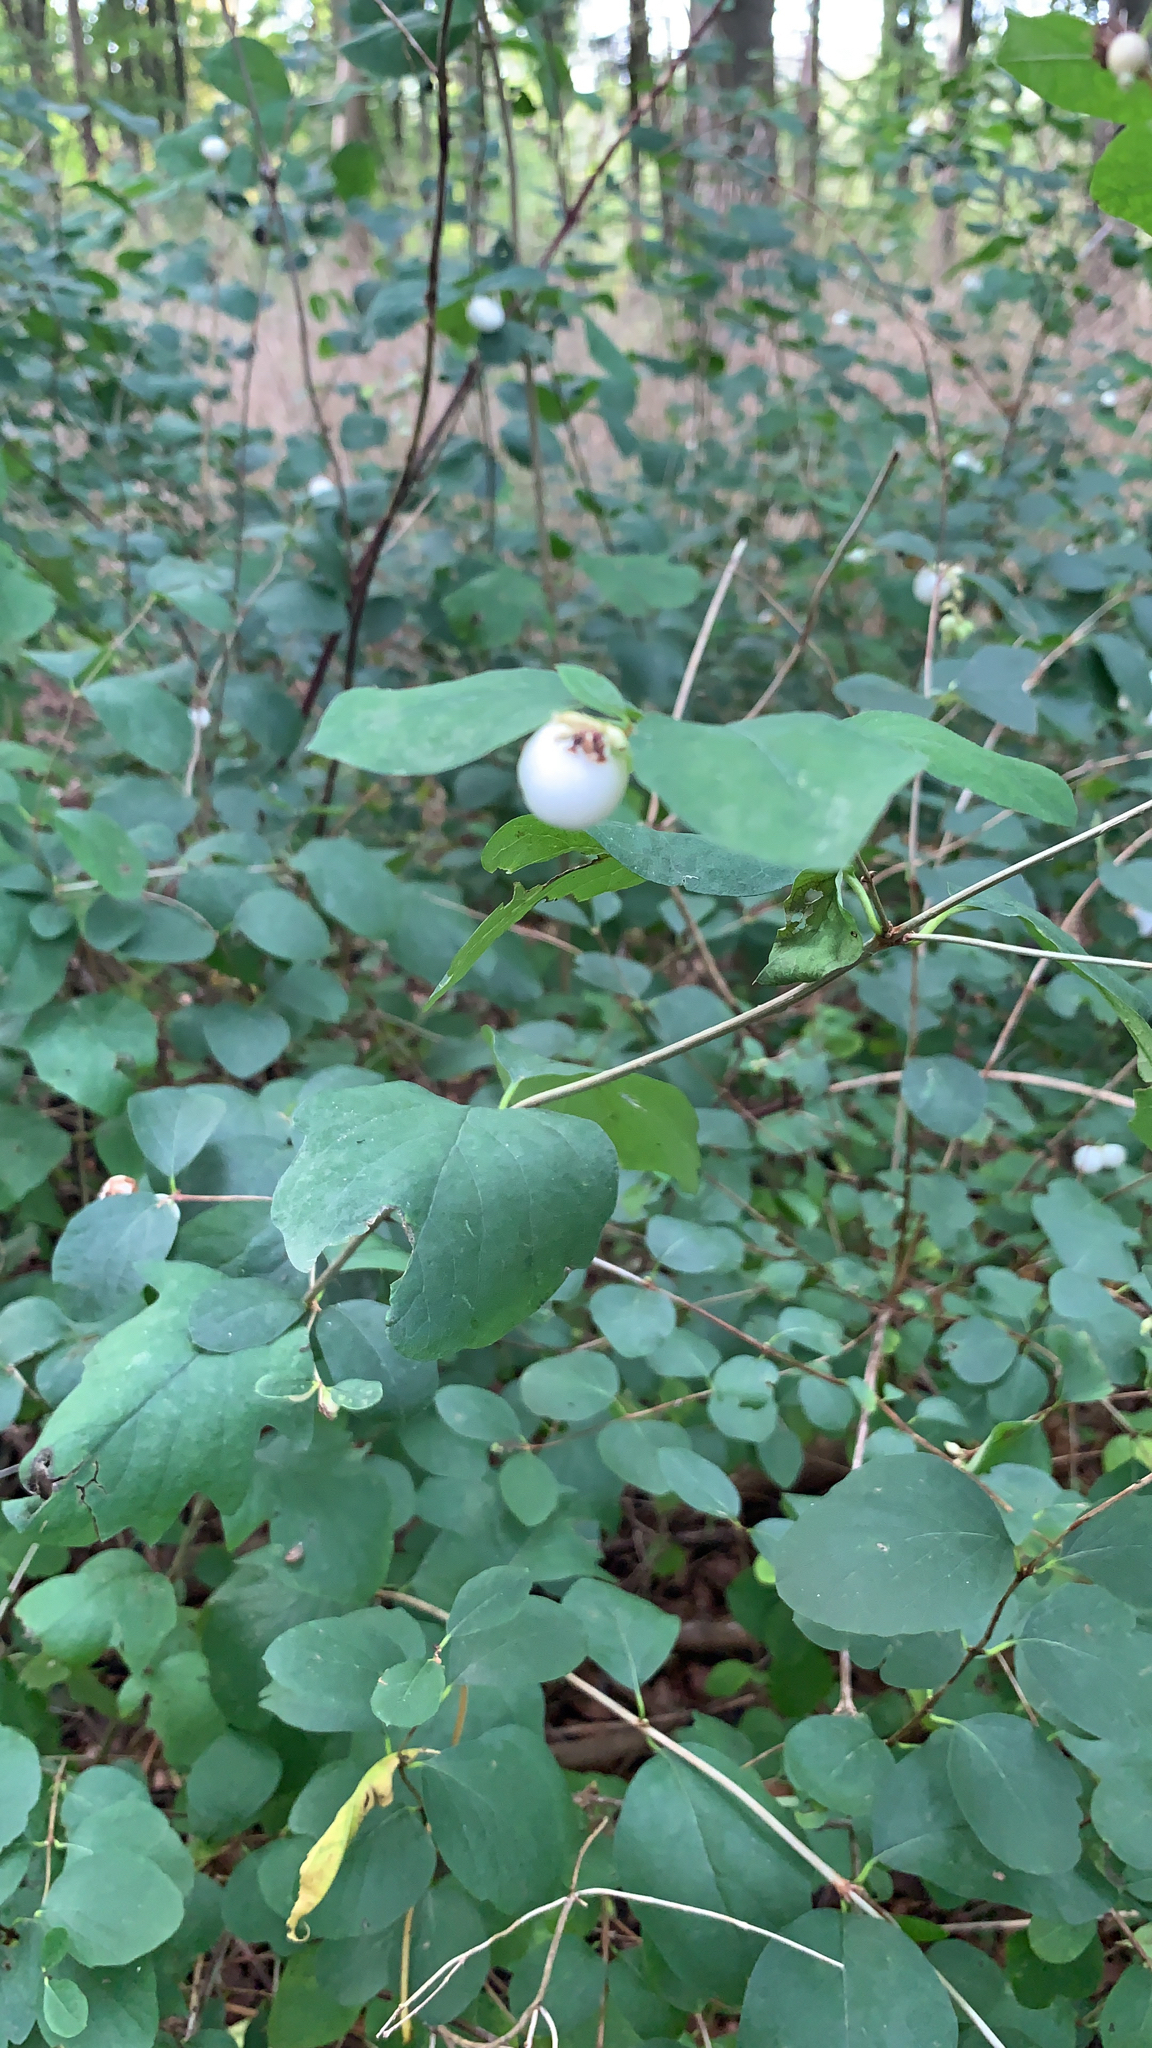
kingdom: Plantae
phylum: Tracheophyta
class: Magnoliopsida
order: Dipsacales
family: Caprifoliaceae
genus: Symphoricarpos
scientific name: Symphoricarpos albus
